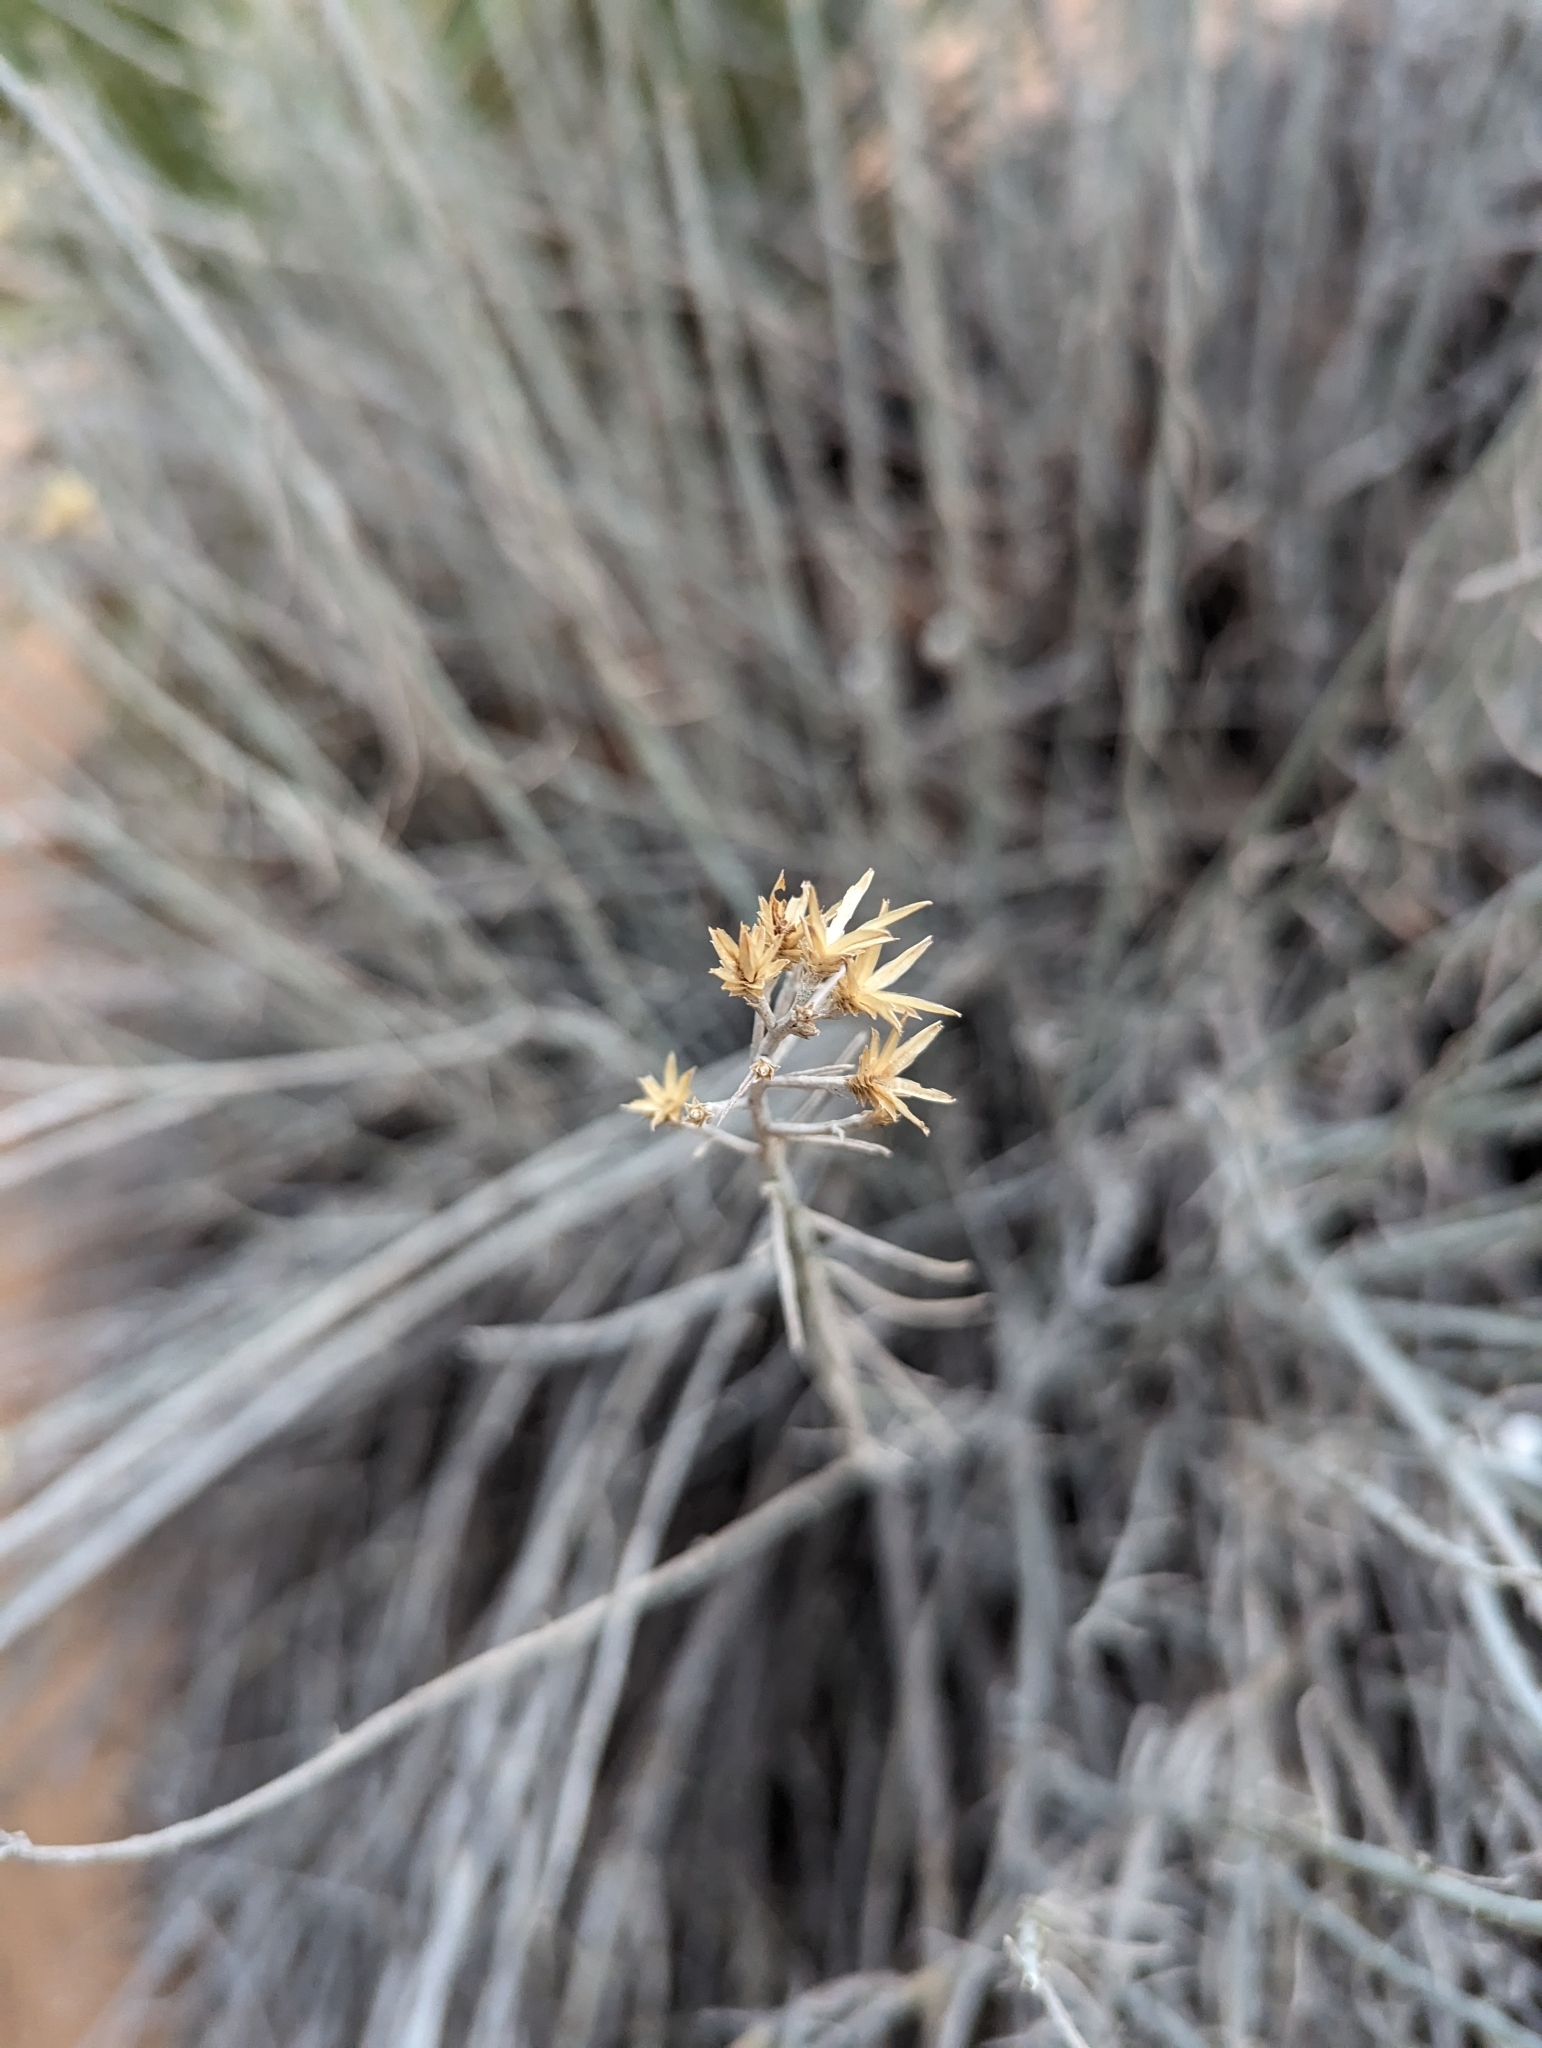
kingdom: Plantae
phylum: Tracheophyta
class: Magnoliopsida
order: Asterales
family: Asteraceae
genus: Ericameria
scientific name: Ericameria nauseosa
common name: Rubber rabbitbrush
